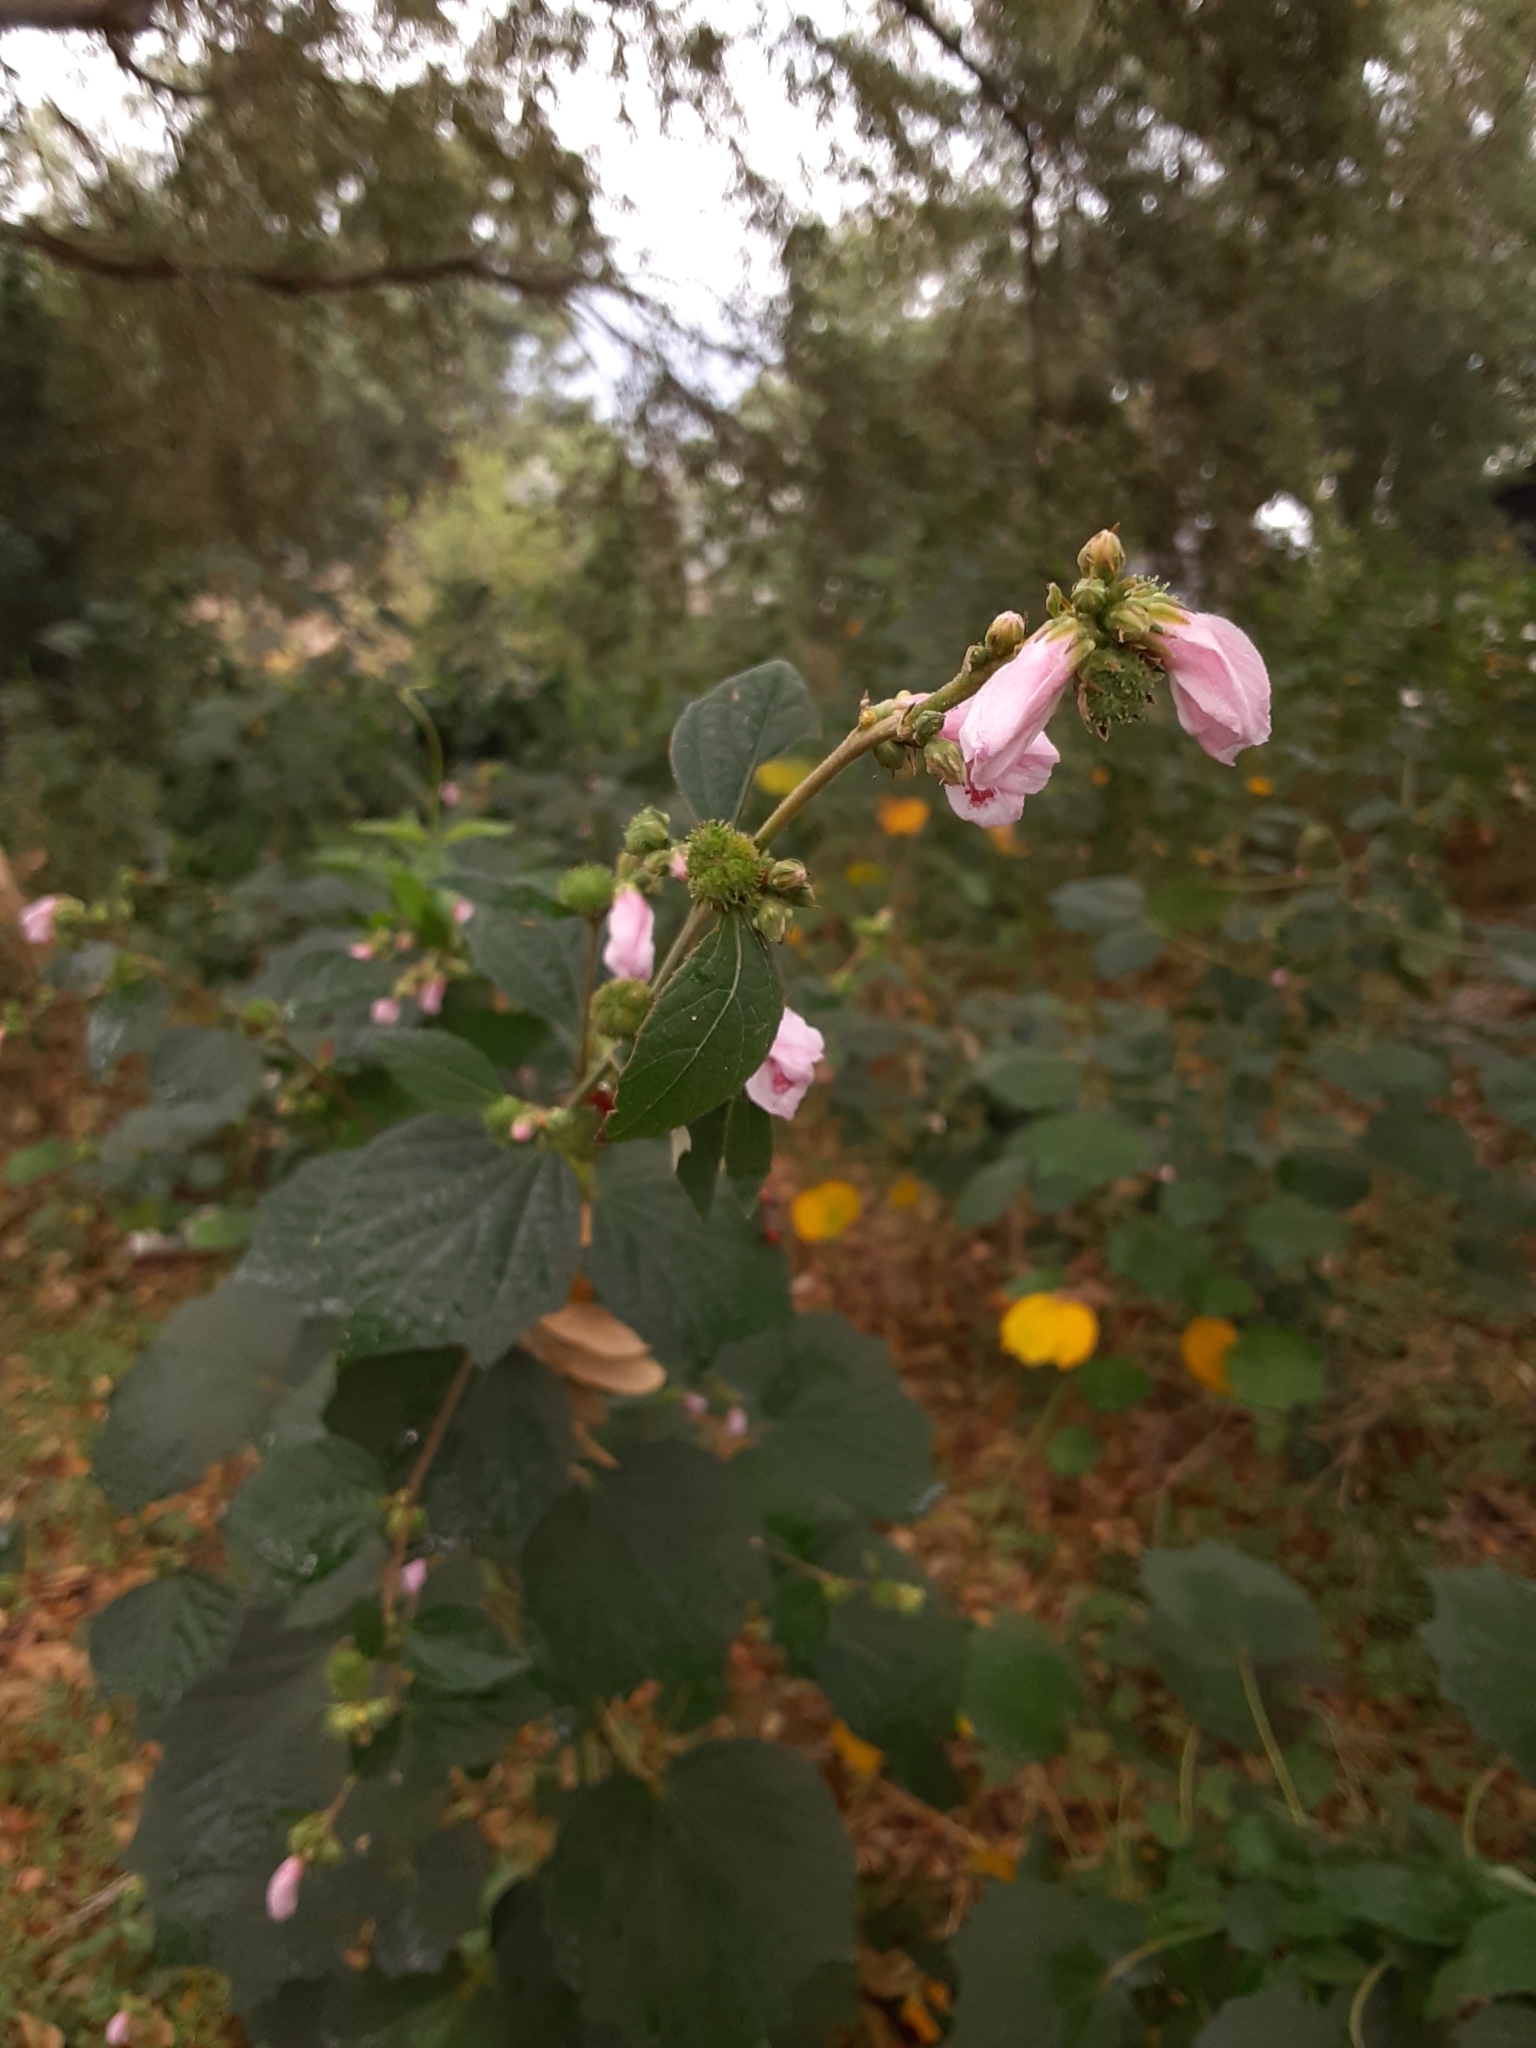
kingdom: Plantae
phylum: Tracheophyta
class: Magnoliopsida
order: Malvales
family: Malvaceae
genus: Urena
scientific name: Urena lobata
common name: Caesarweed
